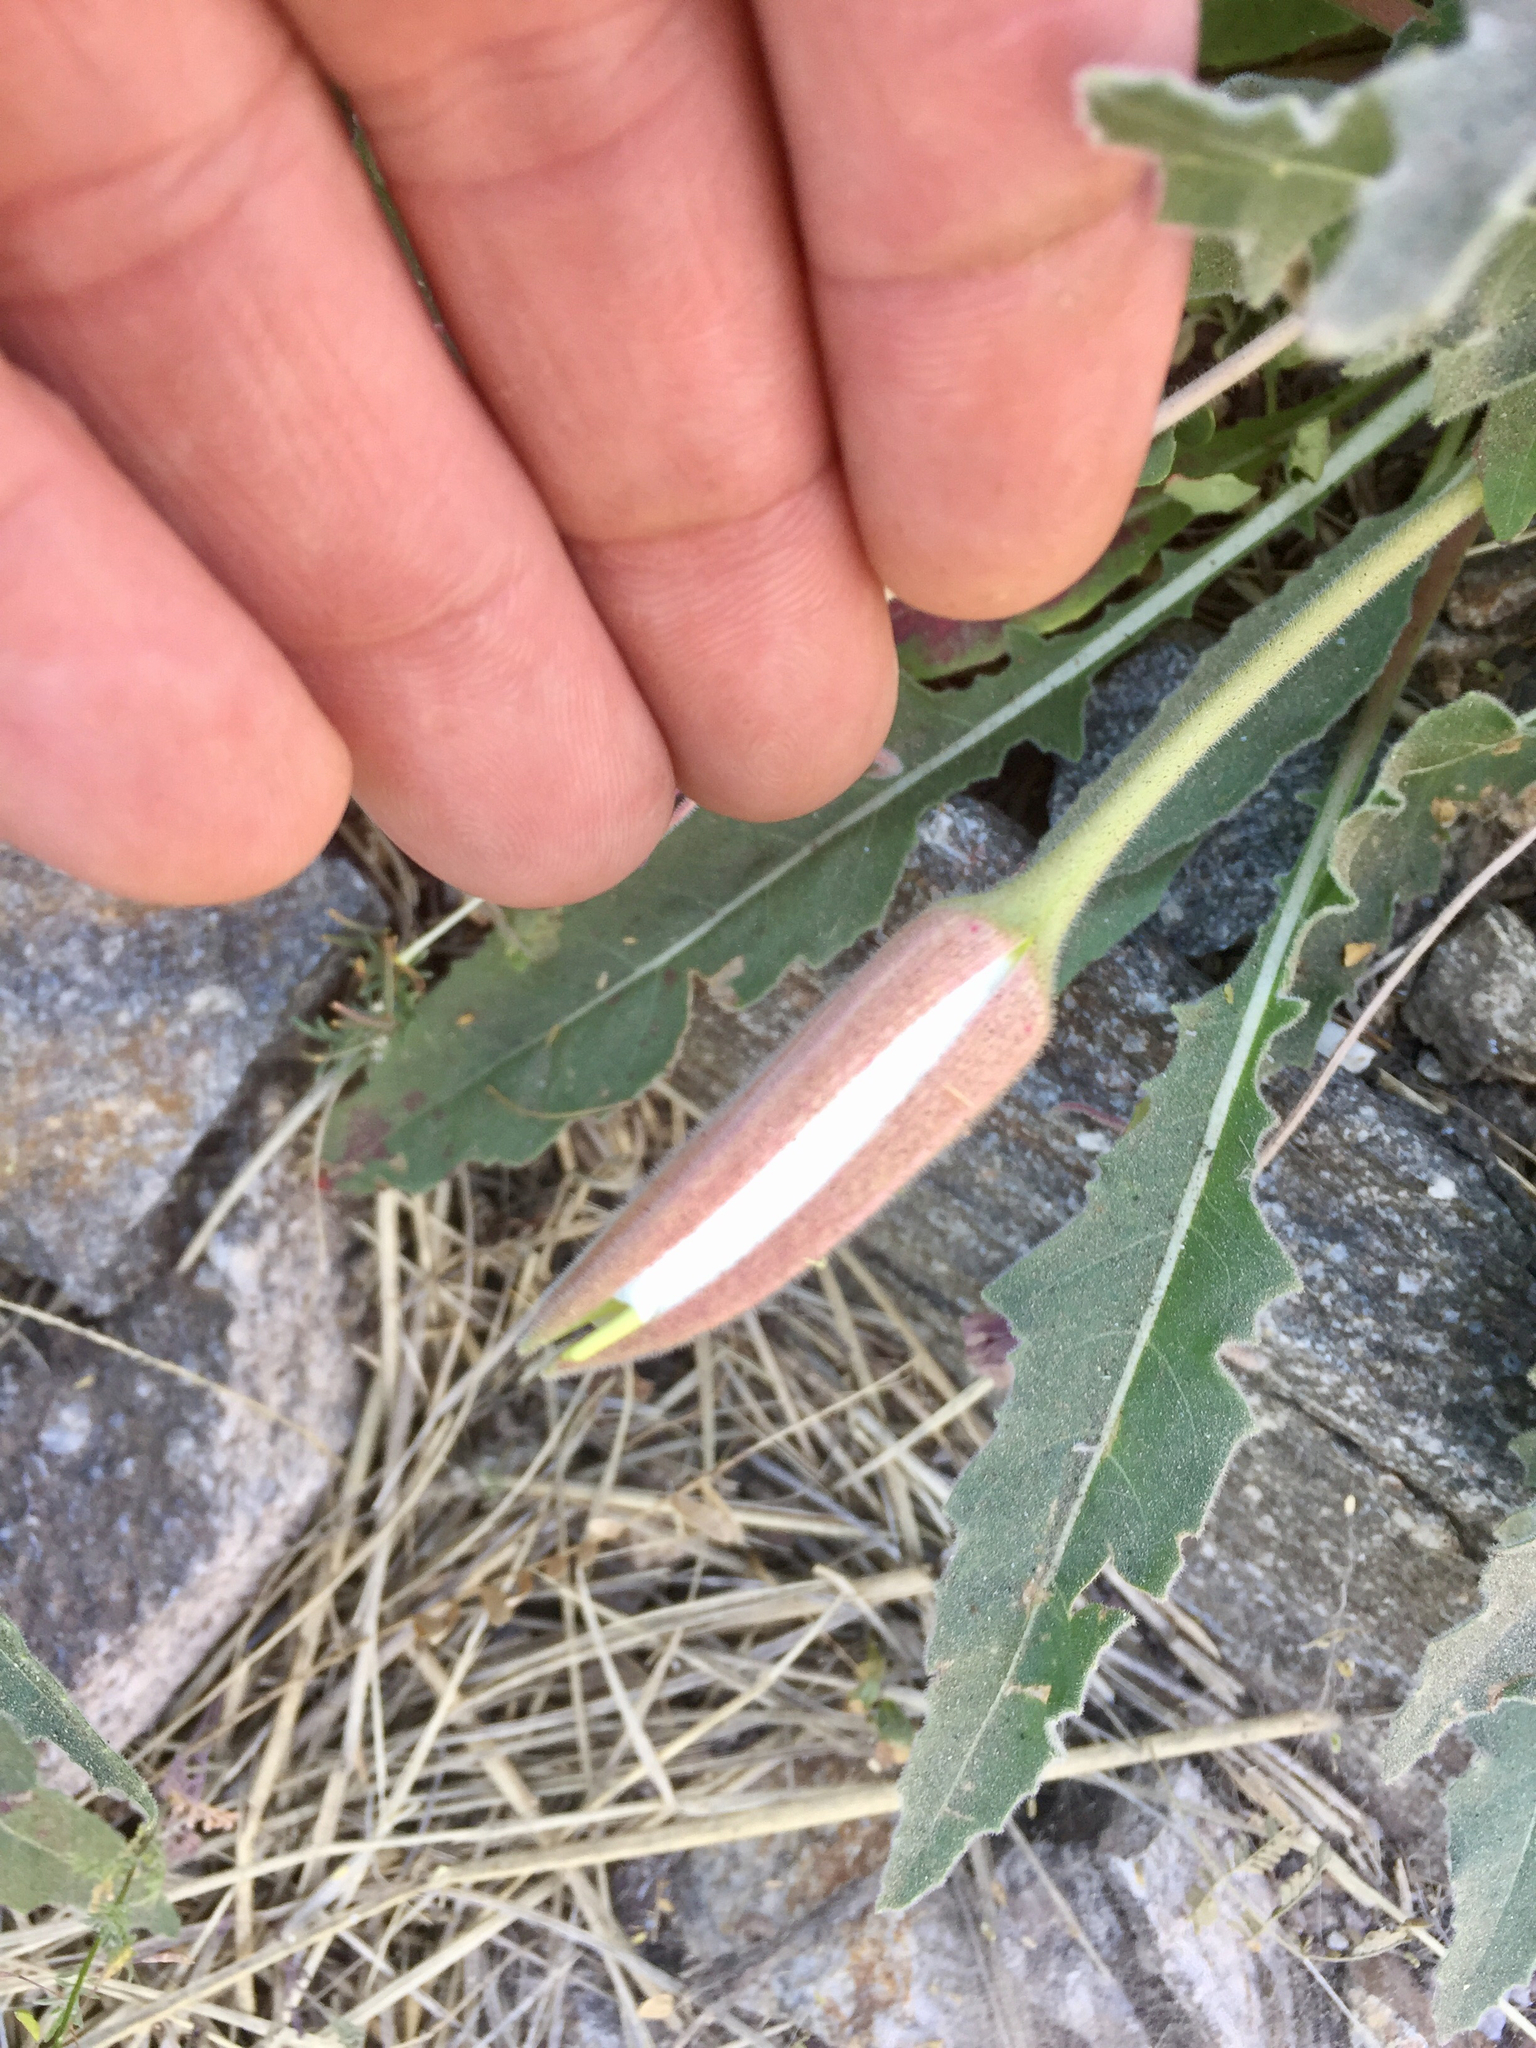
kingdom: Plantae
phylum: Tracheophyta
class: Magnoliopsida
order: Myrtales
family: Onagraceae
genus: Oenothera
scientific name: Oenothera cespitosa
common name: Tufted evening-primrose
